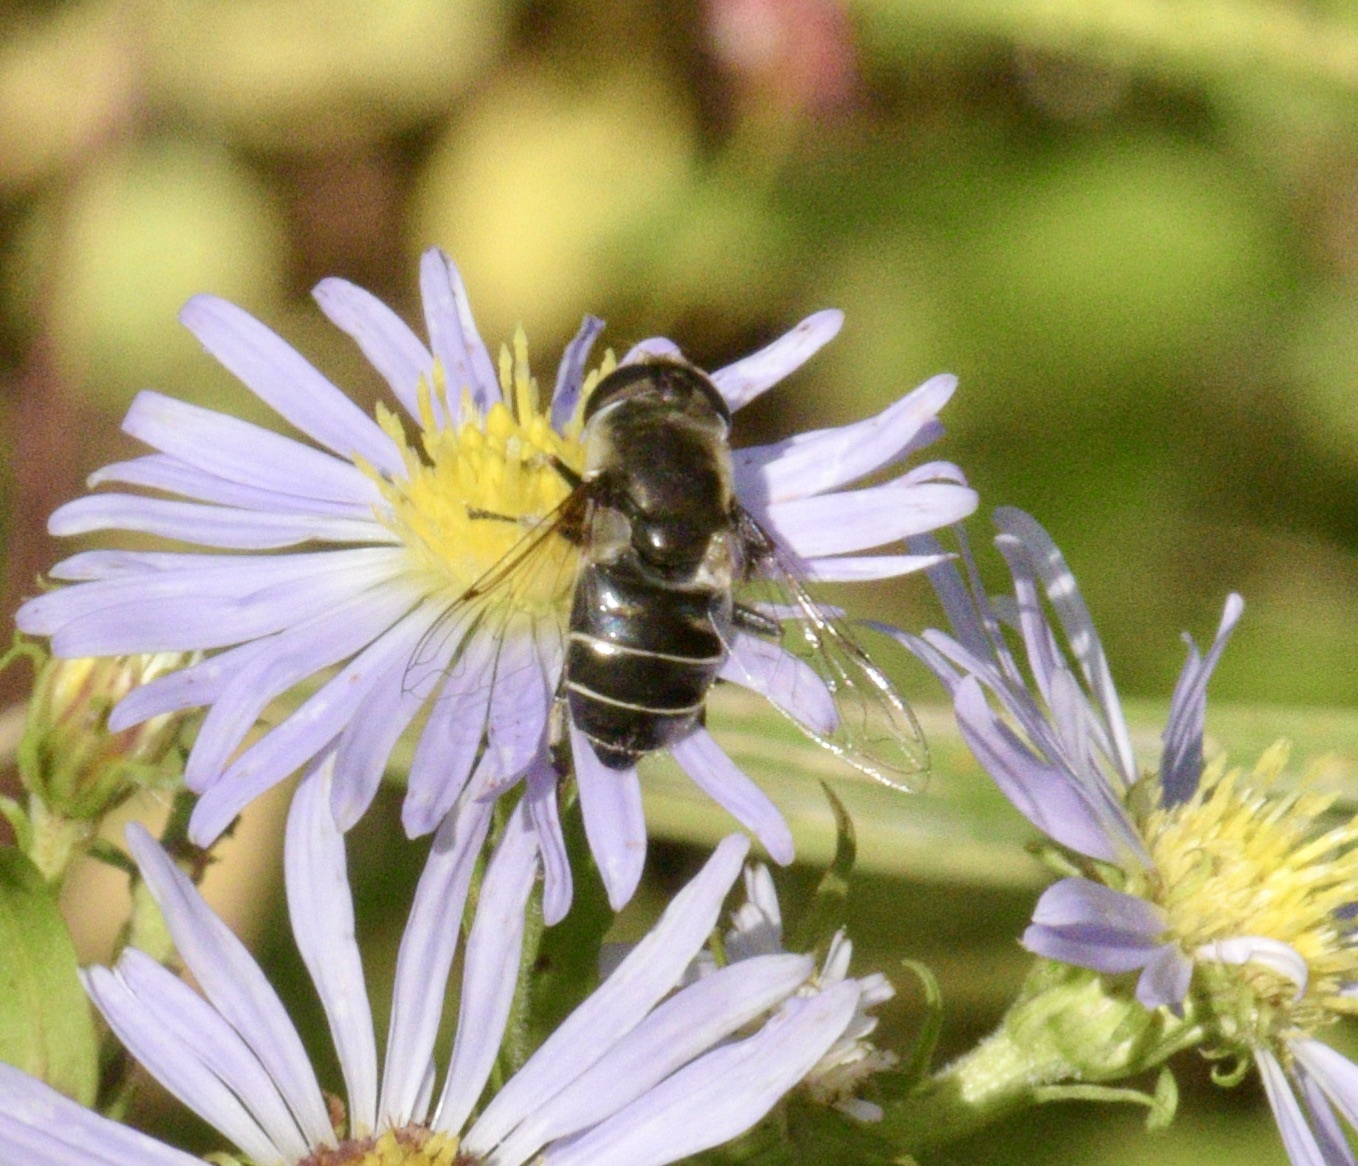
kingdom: Animalia
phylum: Arthropoda
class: Insecta
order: Diptera
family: Syrphidae
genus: Eristalis
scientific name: Eristalis dimidiata
